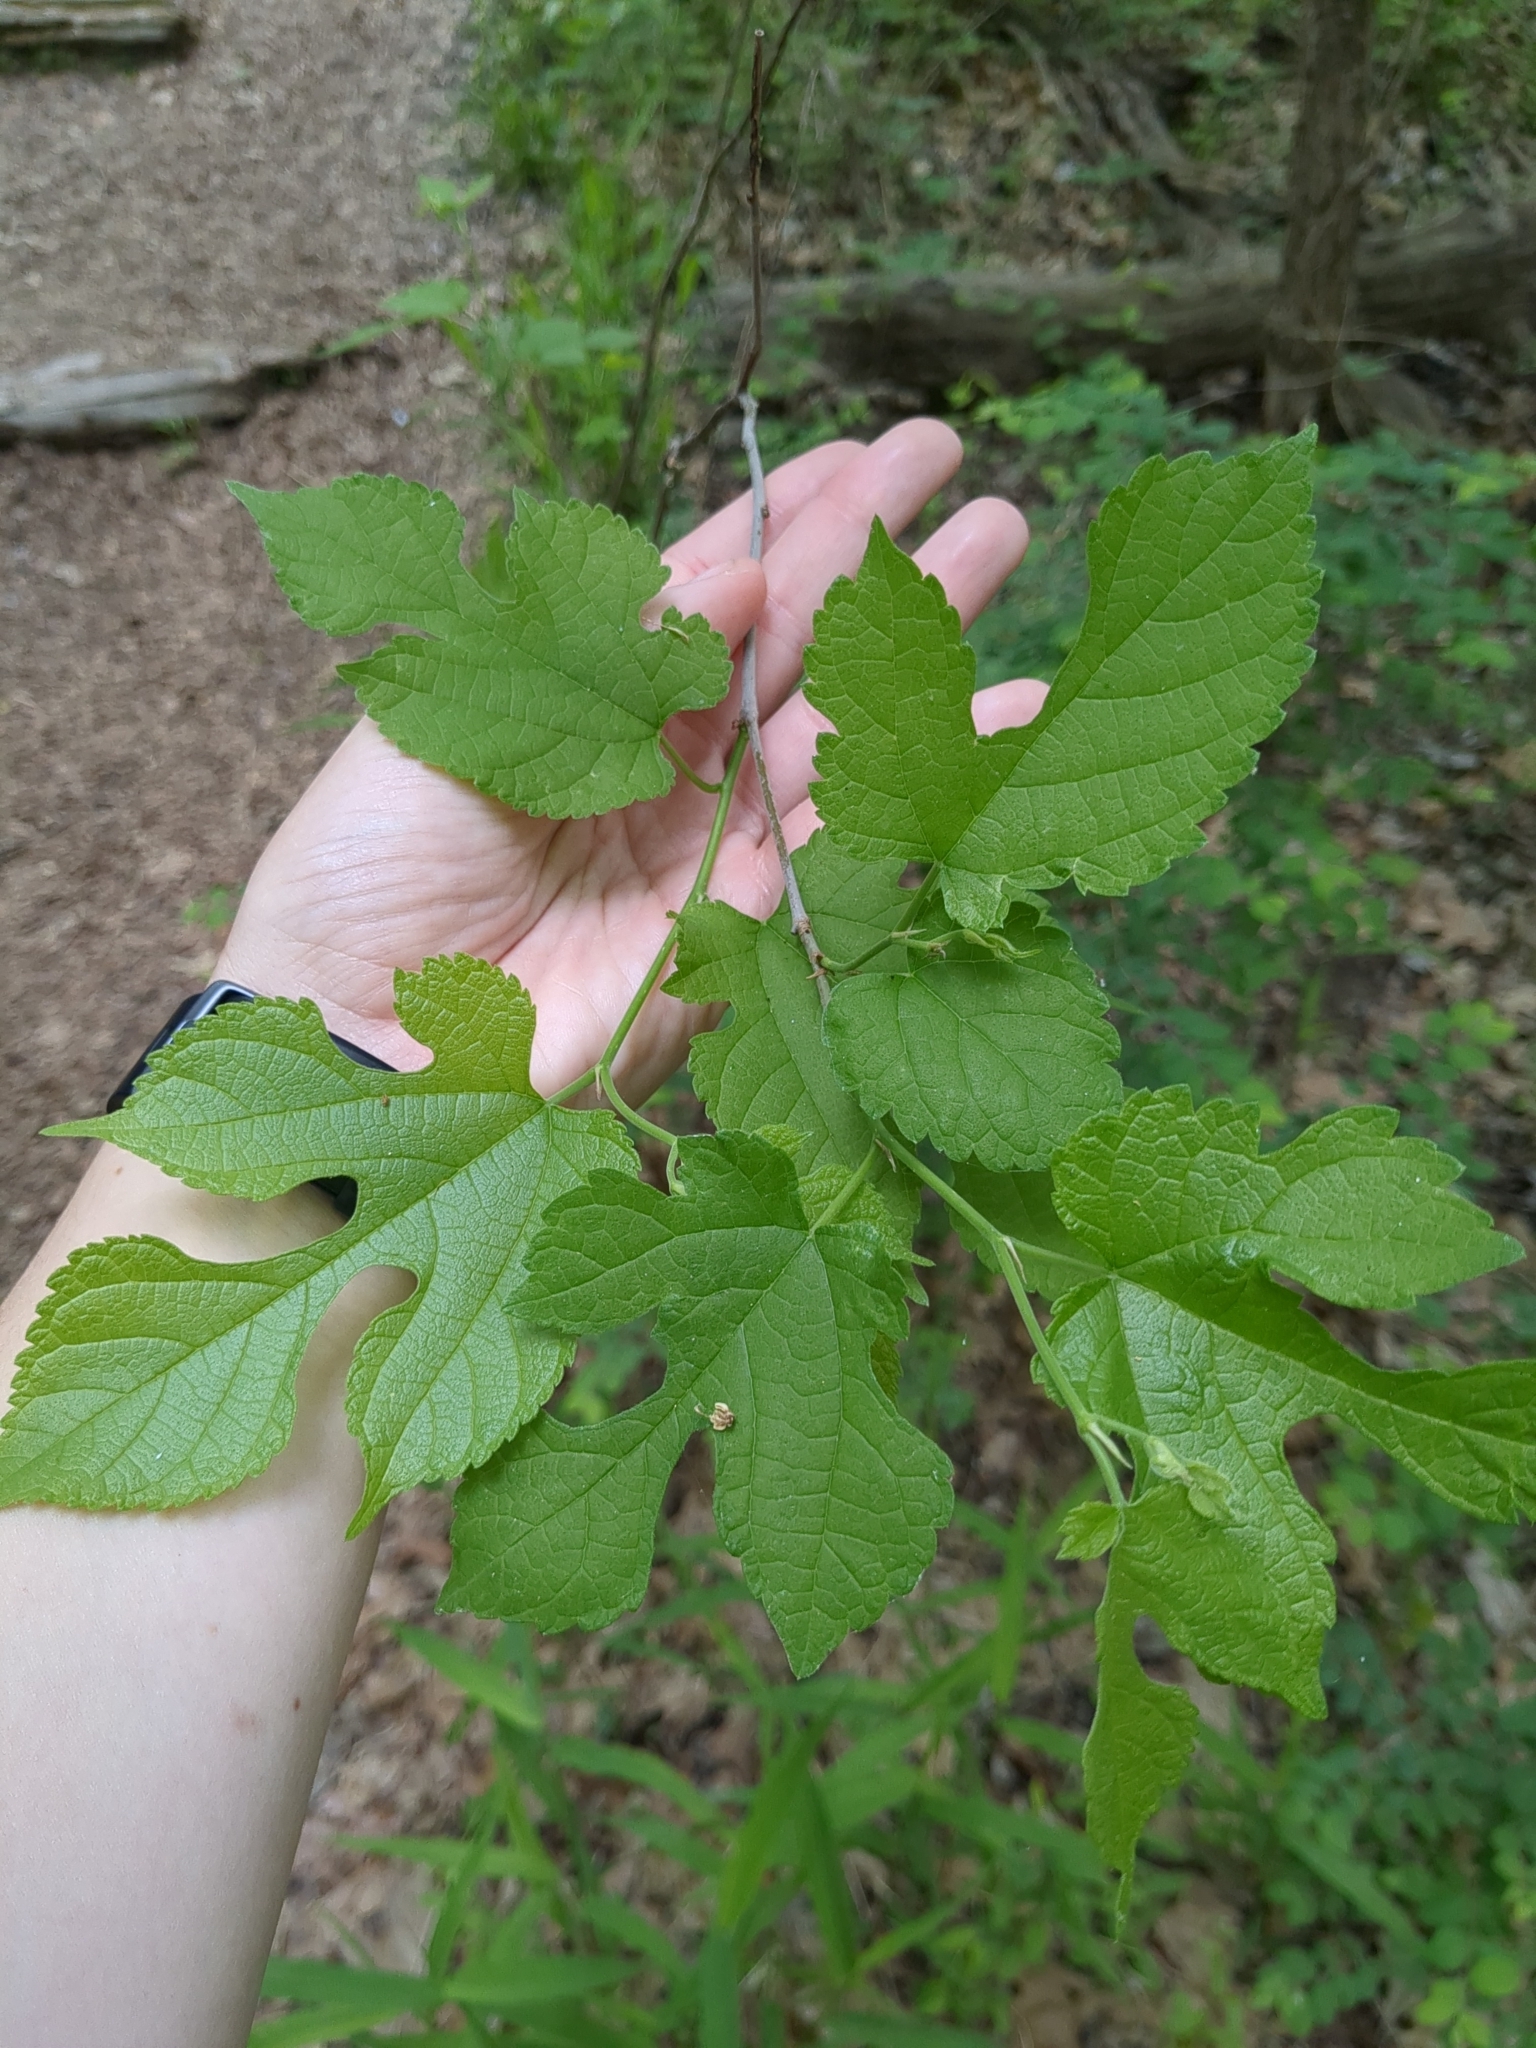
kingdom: Plantae
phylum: Tracheophyta
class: Magnoliopsida
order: Rosales
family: Moraceae
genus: Morus
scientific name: Morus rubra
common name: Red mulberry
